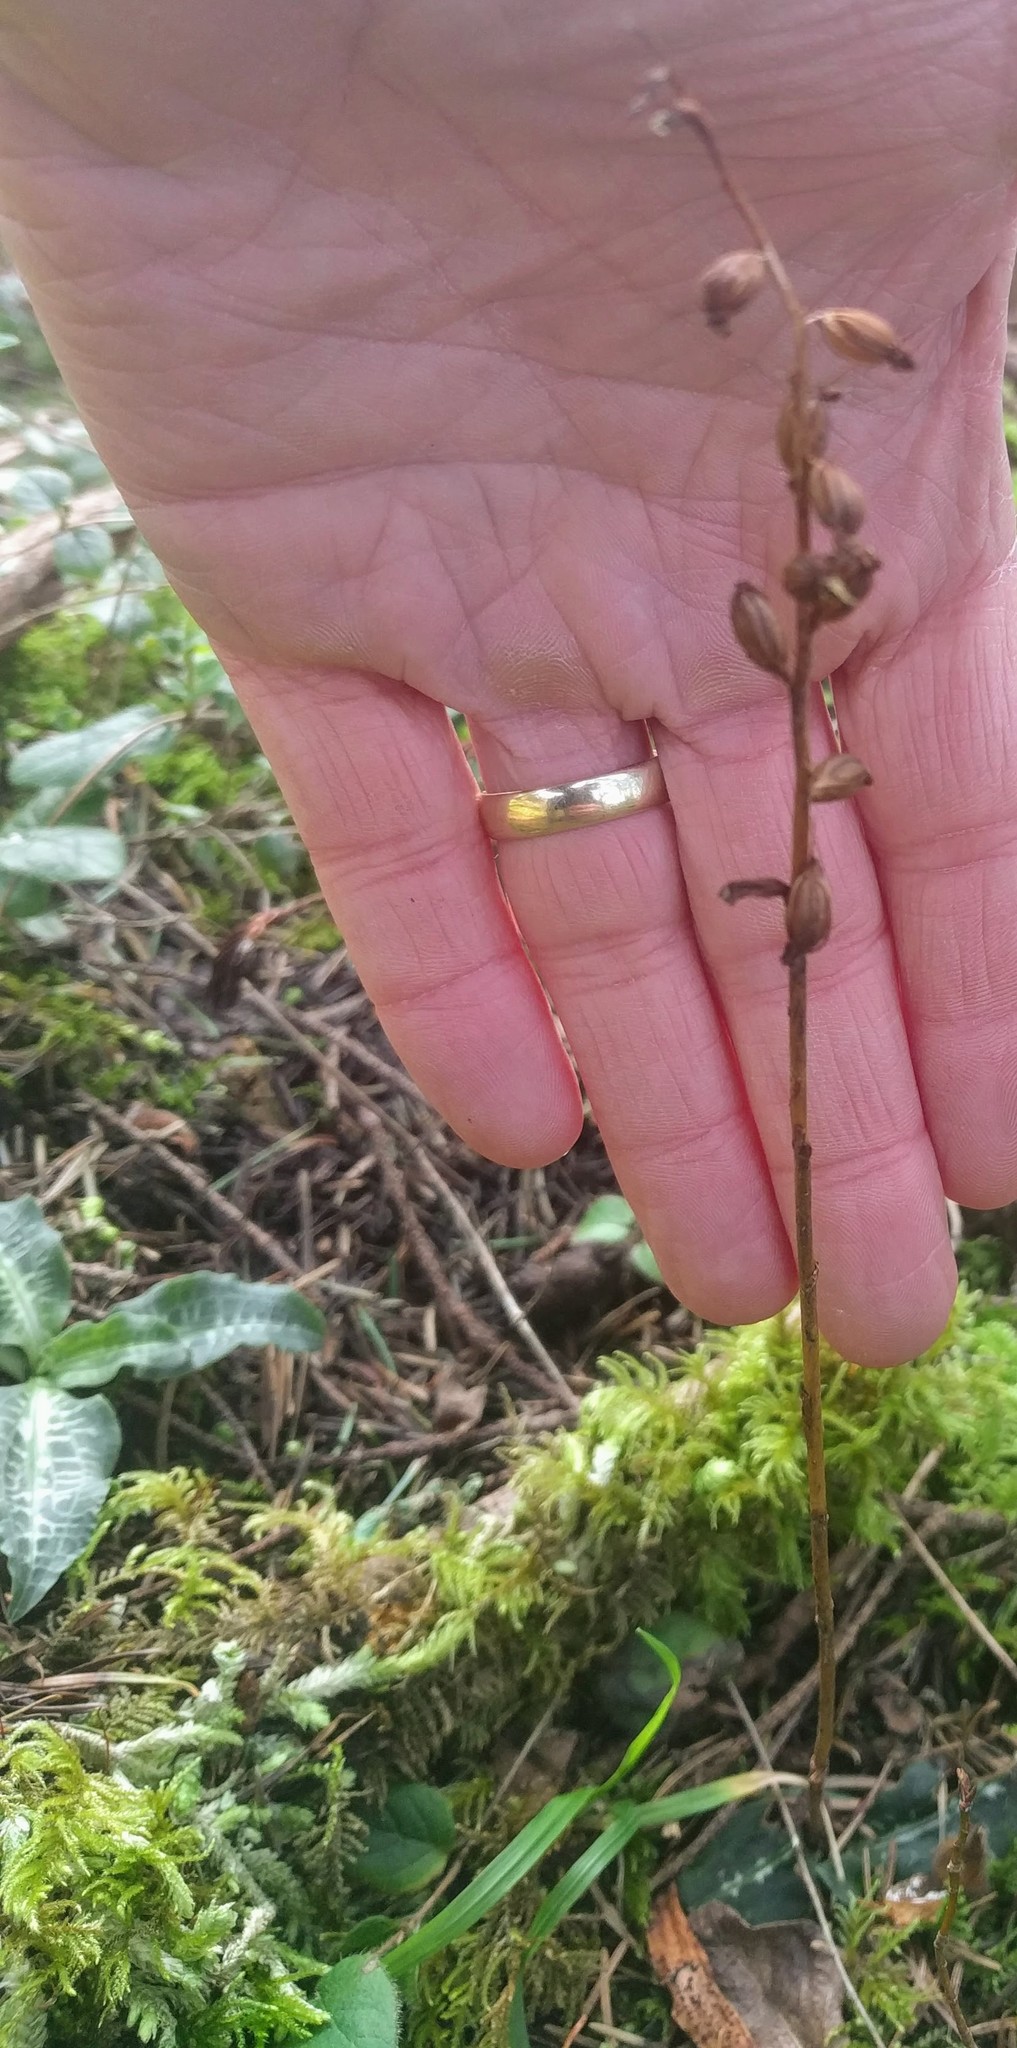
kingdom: Plantae
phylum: Tracheophyta
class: Liliopsida
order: Asparagales
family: Orchidaceae
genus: Goodyera
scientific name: Goodyera oblongifolia
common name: Giant rattlesnake-plantain
